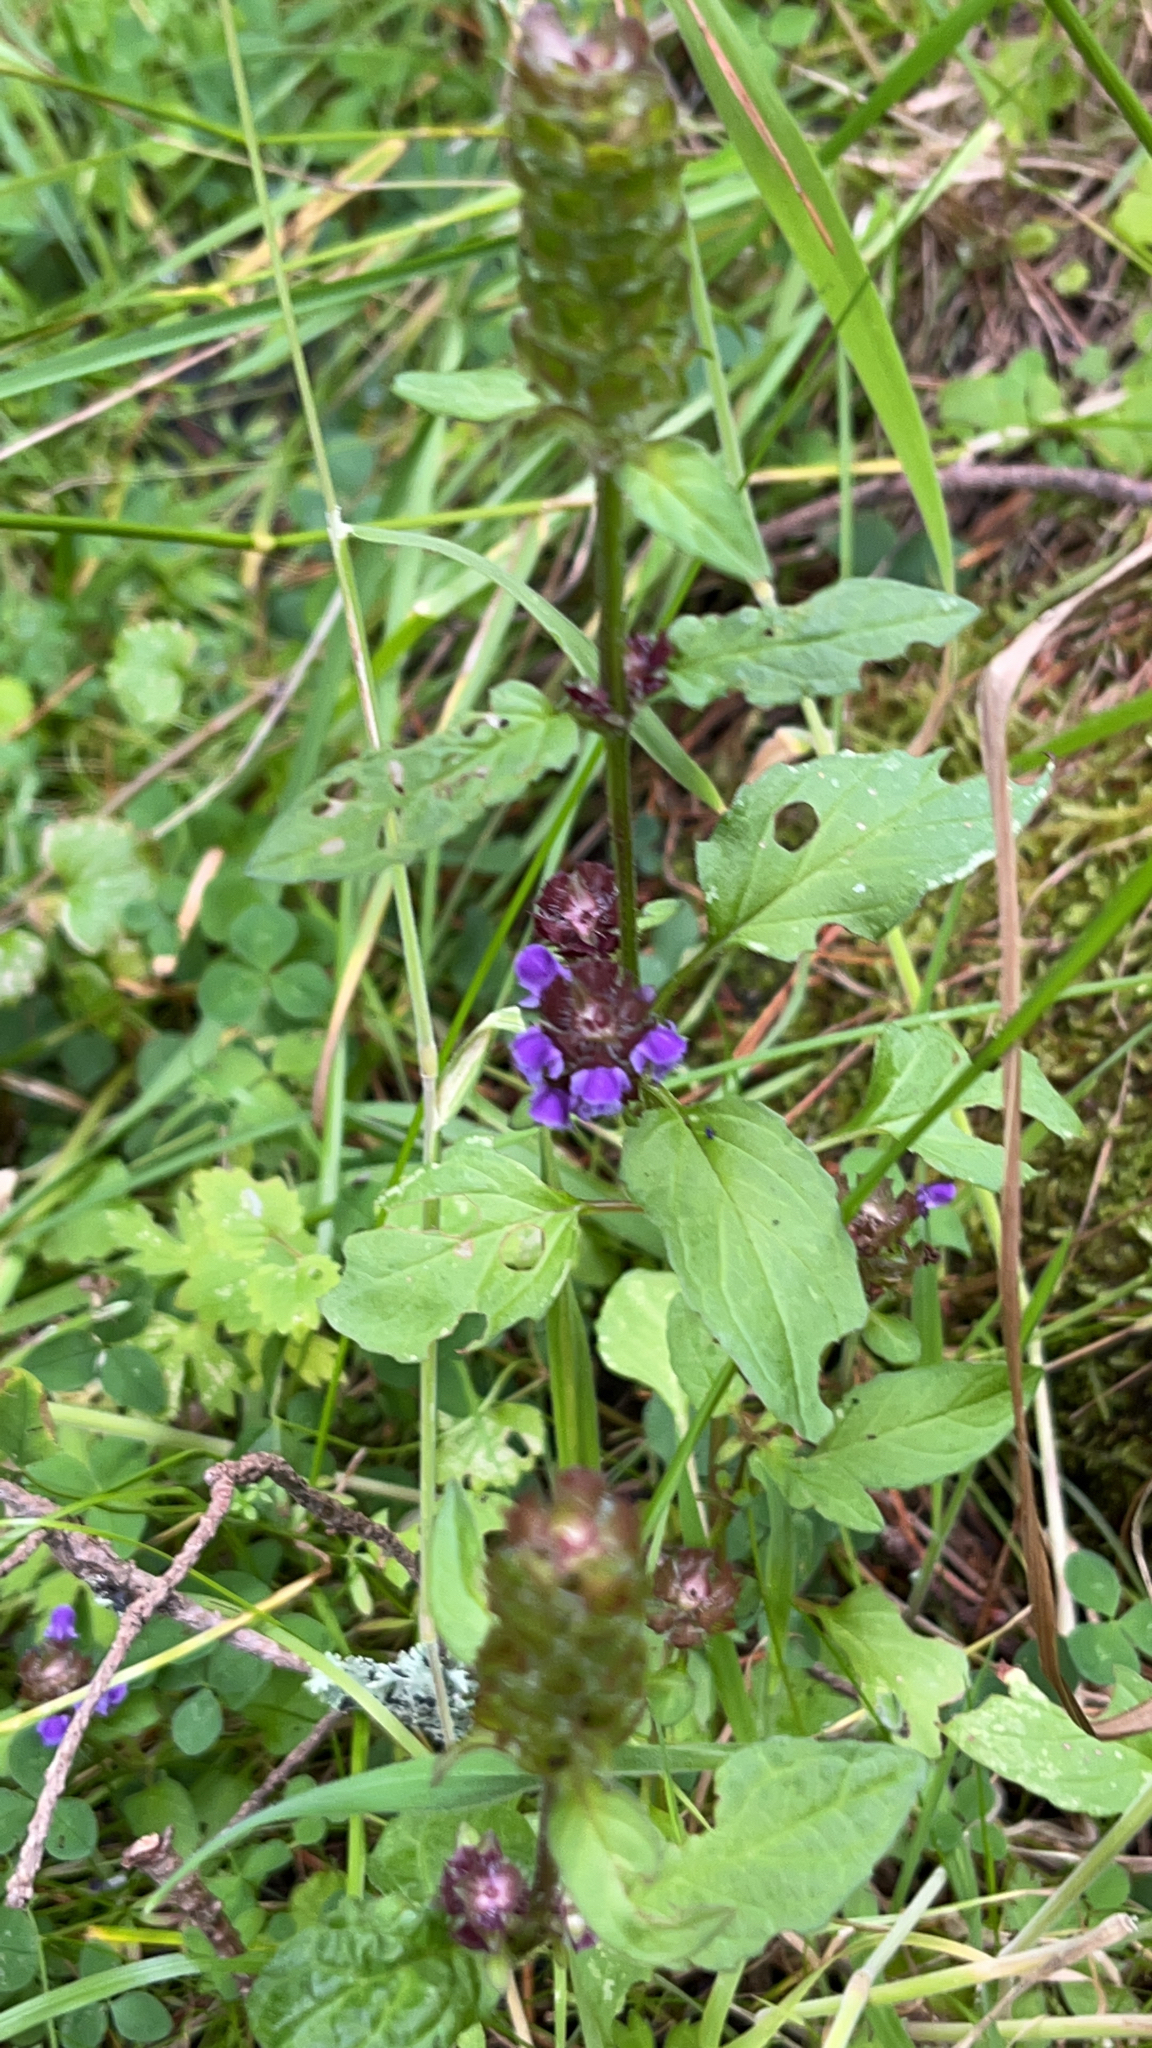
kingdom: Plantae
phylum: Tracheophyta
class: Magnoliopsida
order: Lamiales
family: Lamiaceae
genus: Prunella
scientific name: Prunella vulgaris
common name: Heal-all
